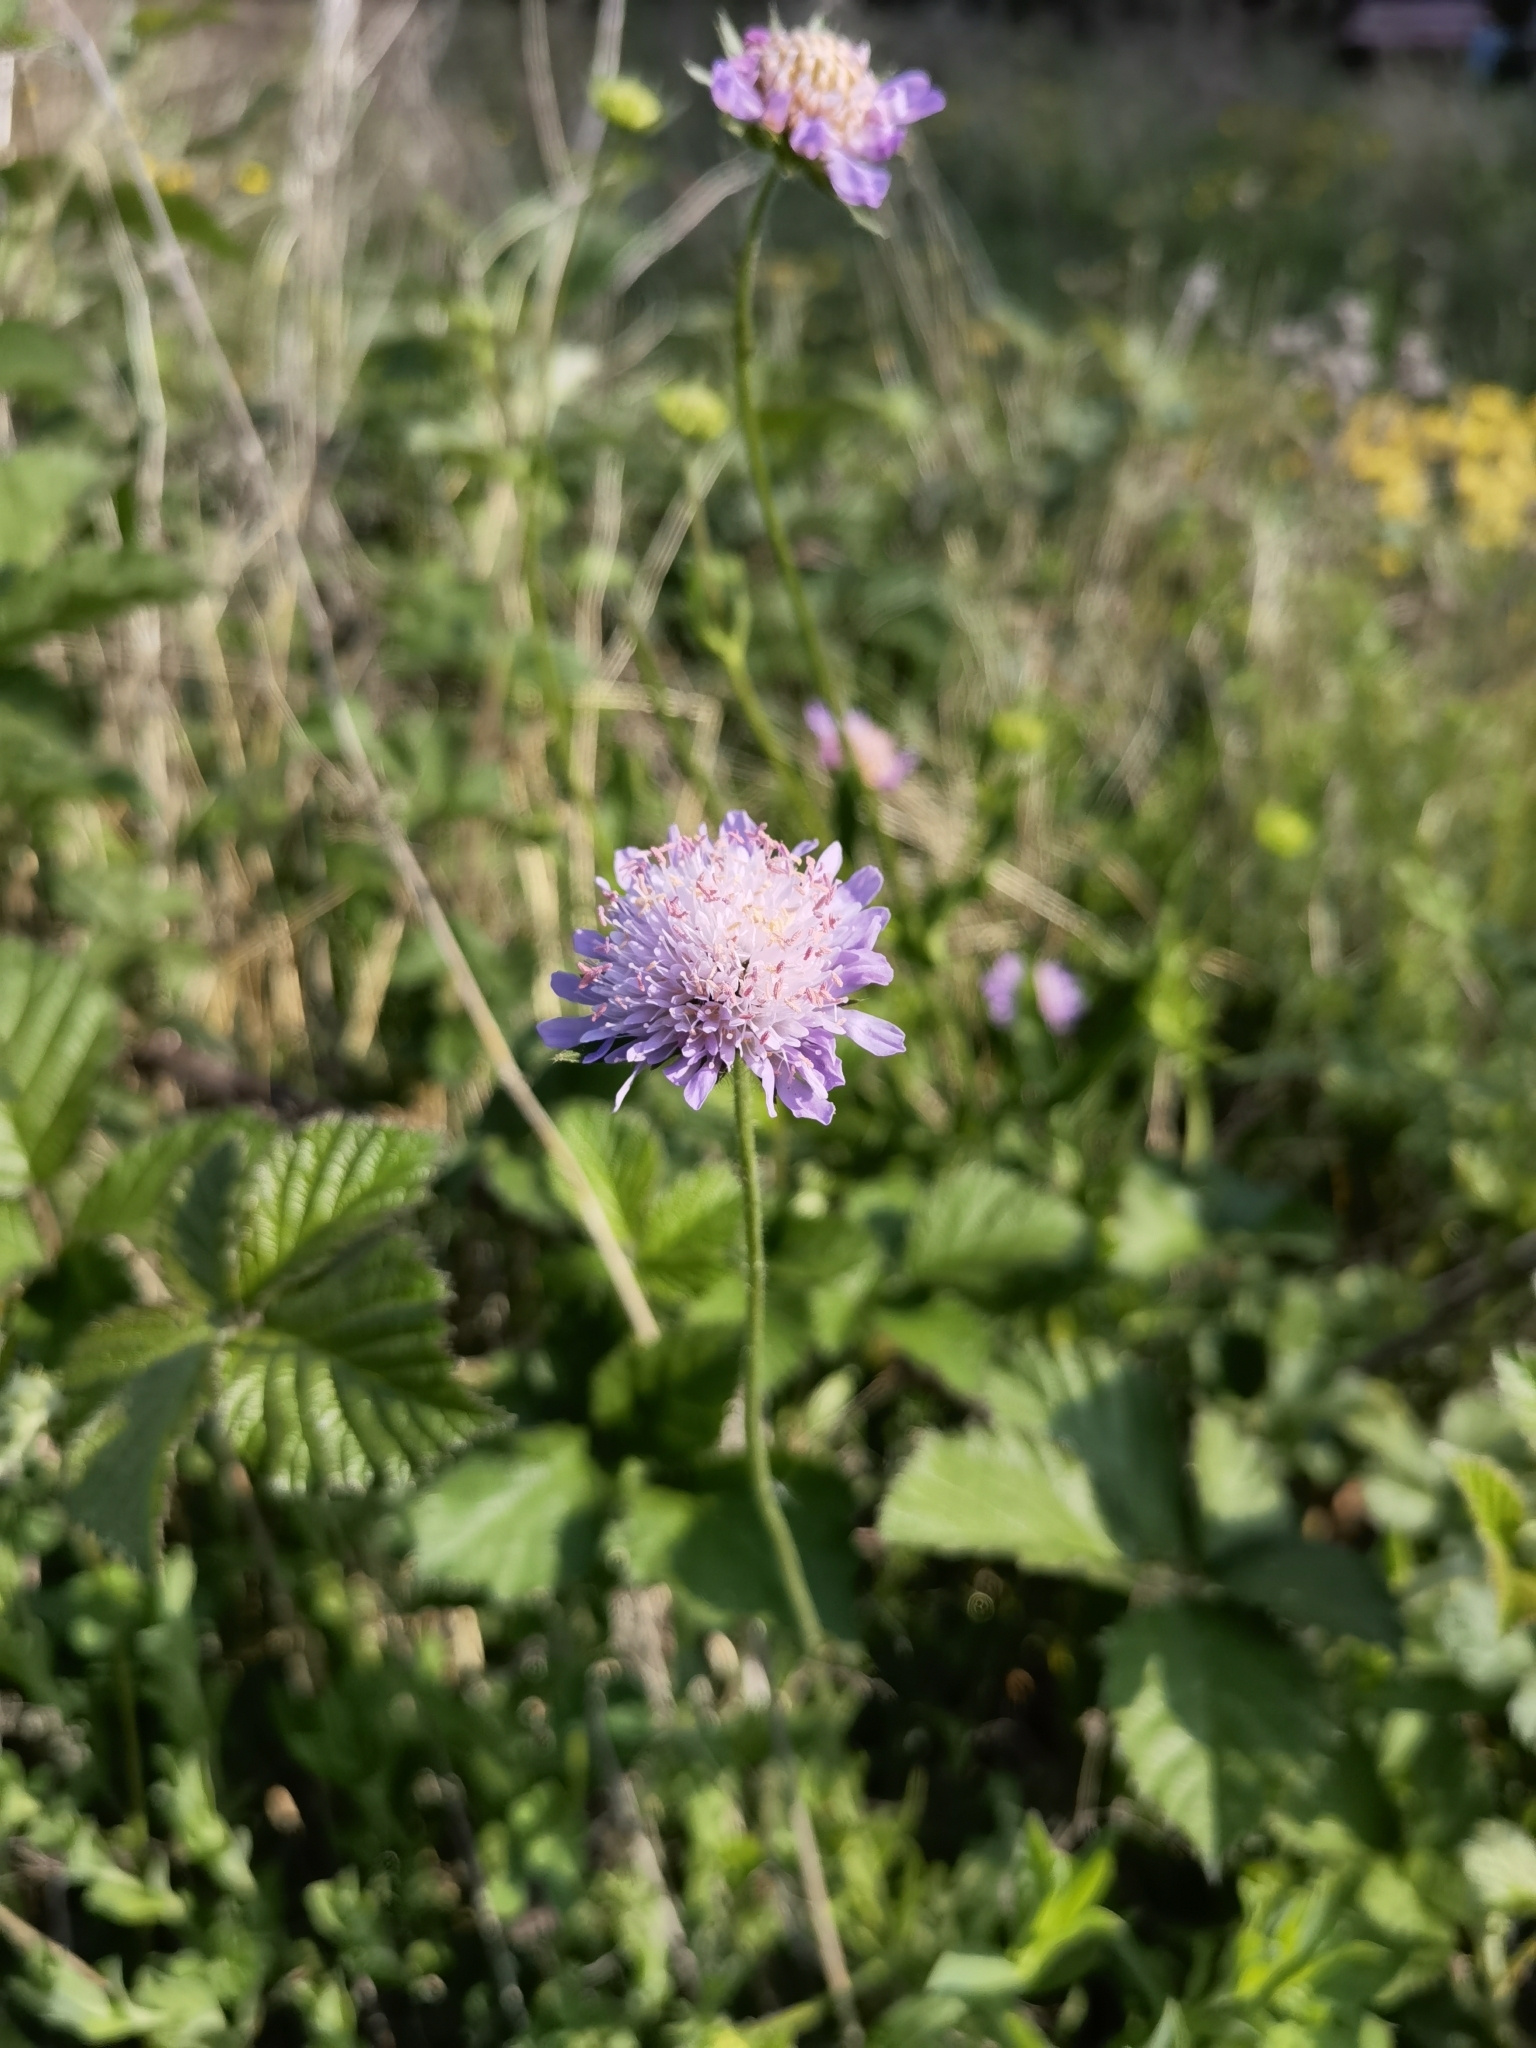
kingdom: Plantae
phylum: Tracheophyta
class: Magnoliopsida
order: Dipsacales
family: Caprifoliaceae
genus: Knautia
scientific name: Knautia arvensis
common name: Field scabiosa
